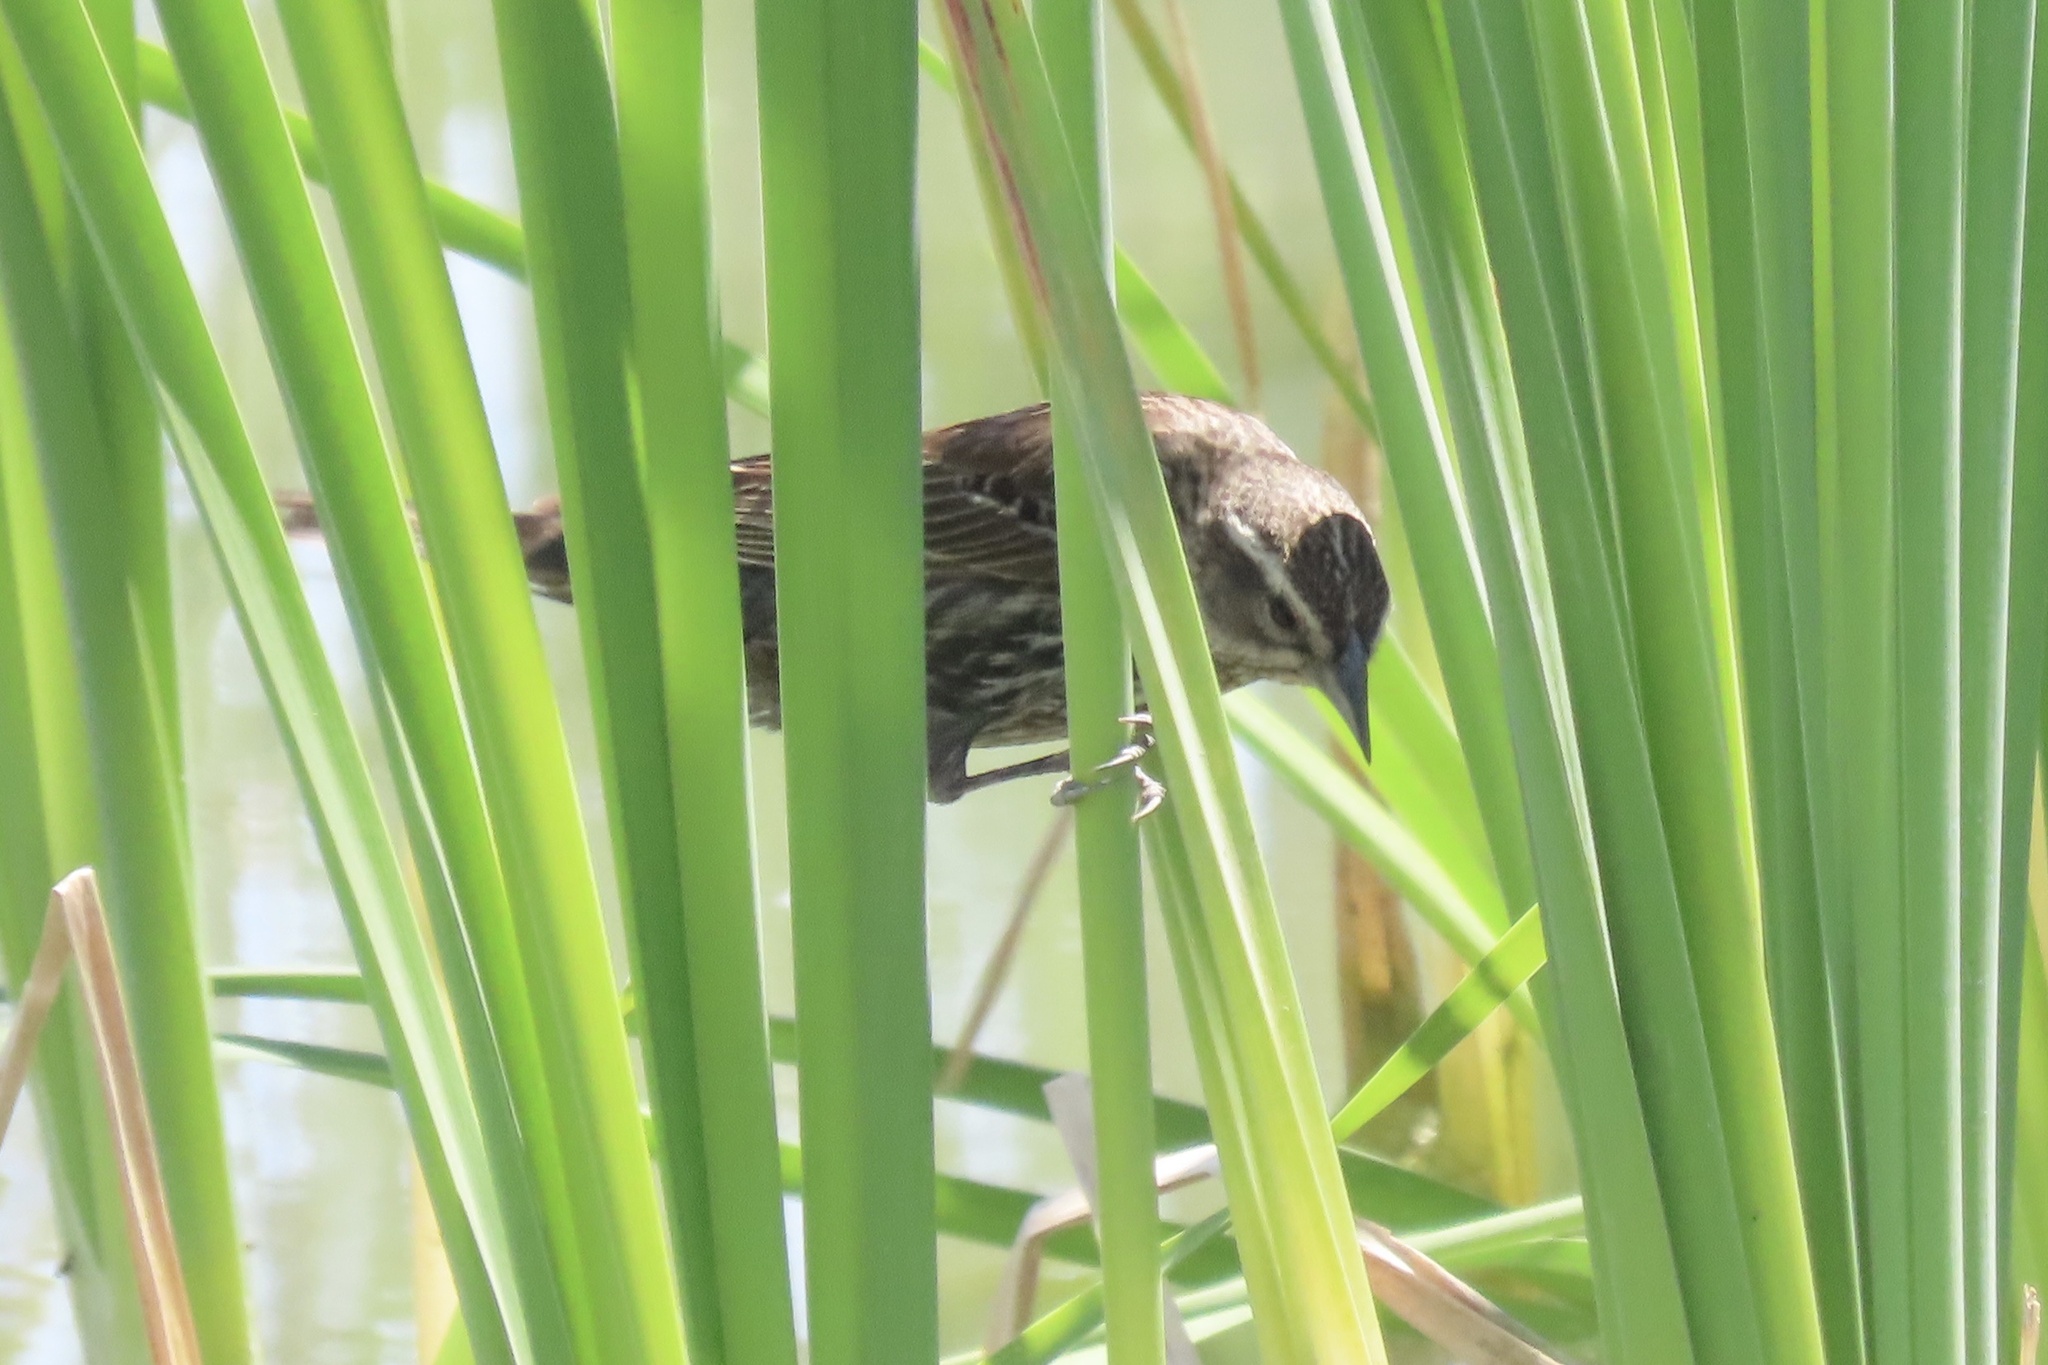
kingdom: Animalia
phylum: Chordata
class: Aves
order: Passeriformes
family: Icteridae
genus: Agelaius
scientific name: Agelaius phoeniceus
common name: Red-winged blackbird
